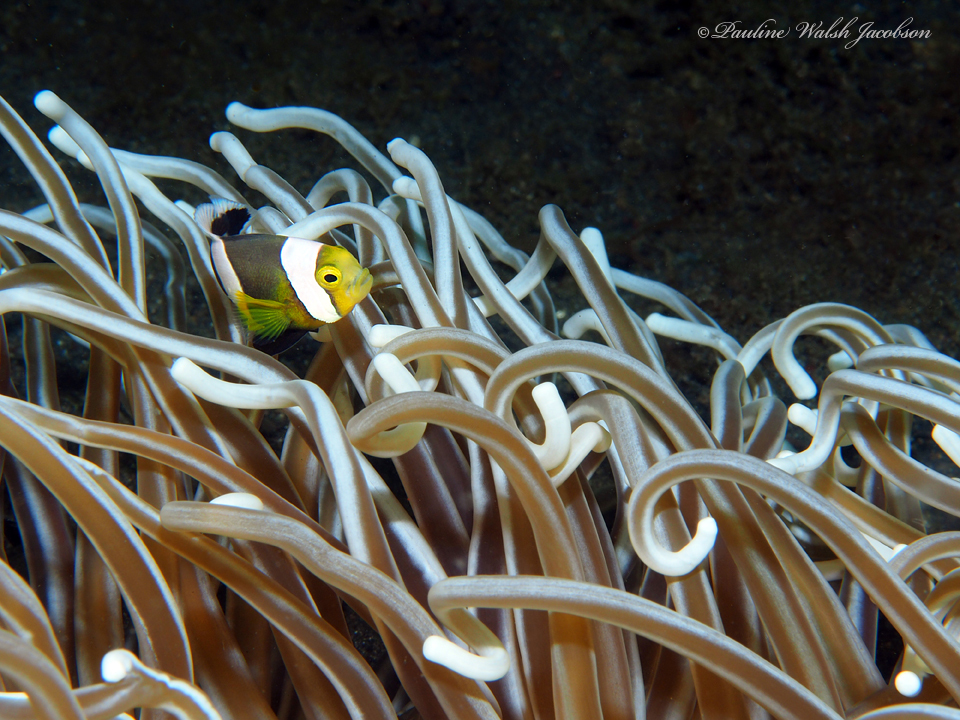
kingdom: Animalia
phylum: Cnidaria
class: Anthozoa
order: Actiniaria
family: Heteractidae
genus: Heteractis
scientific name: Heteractis
